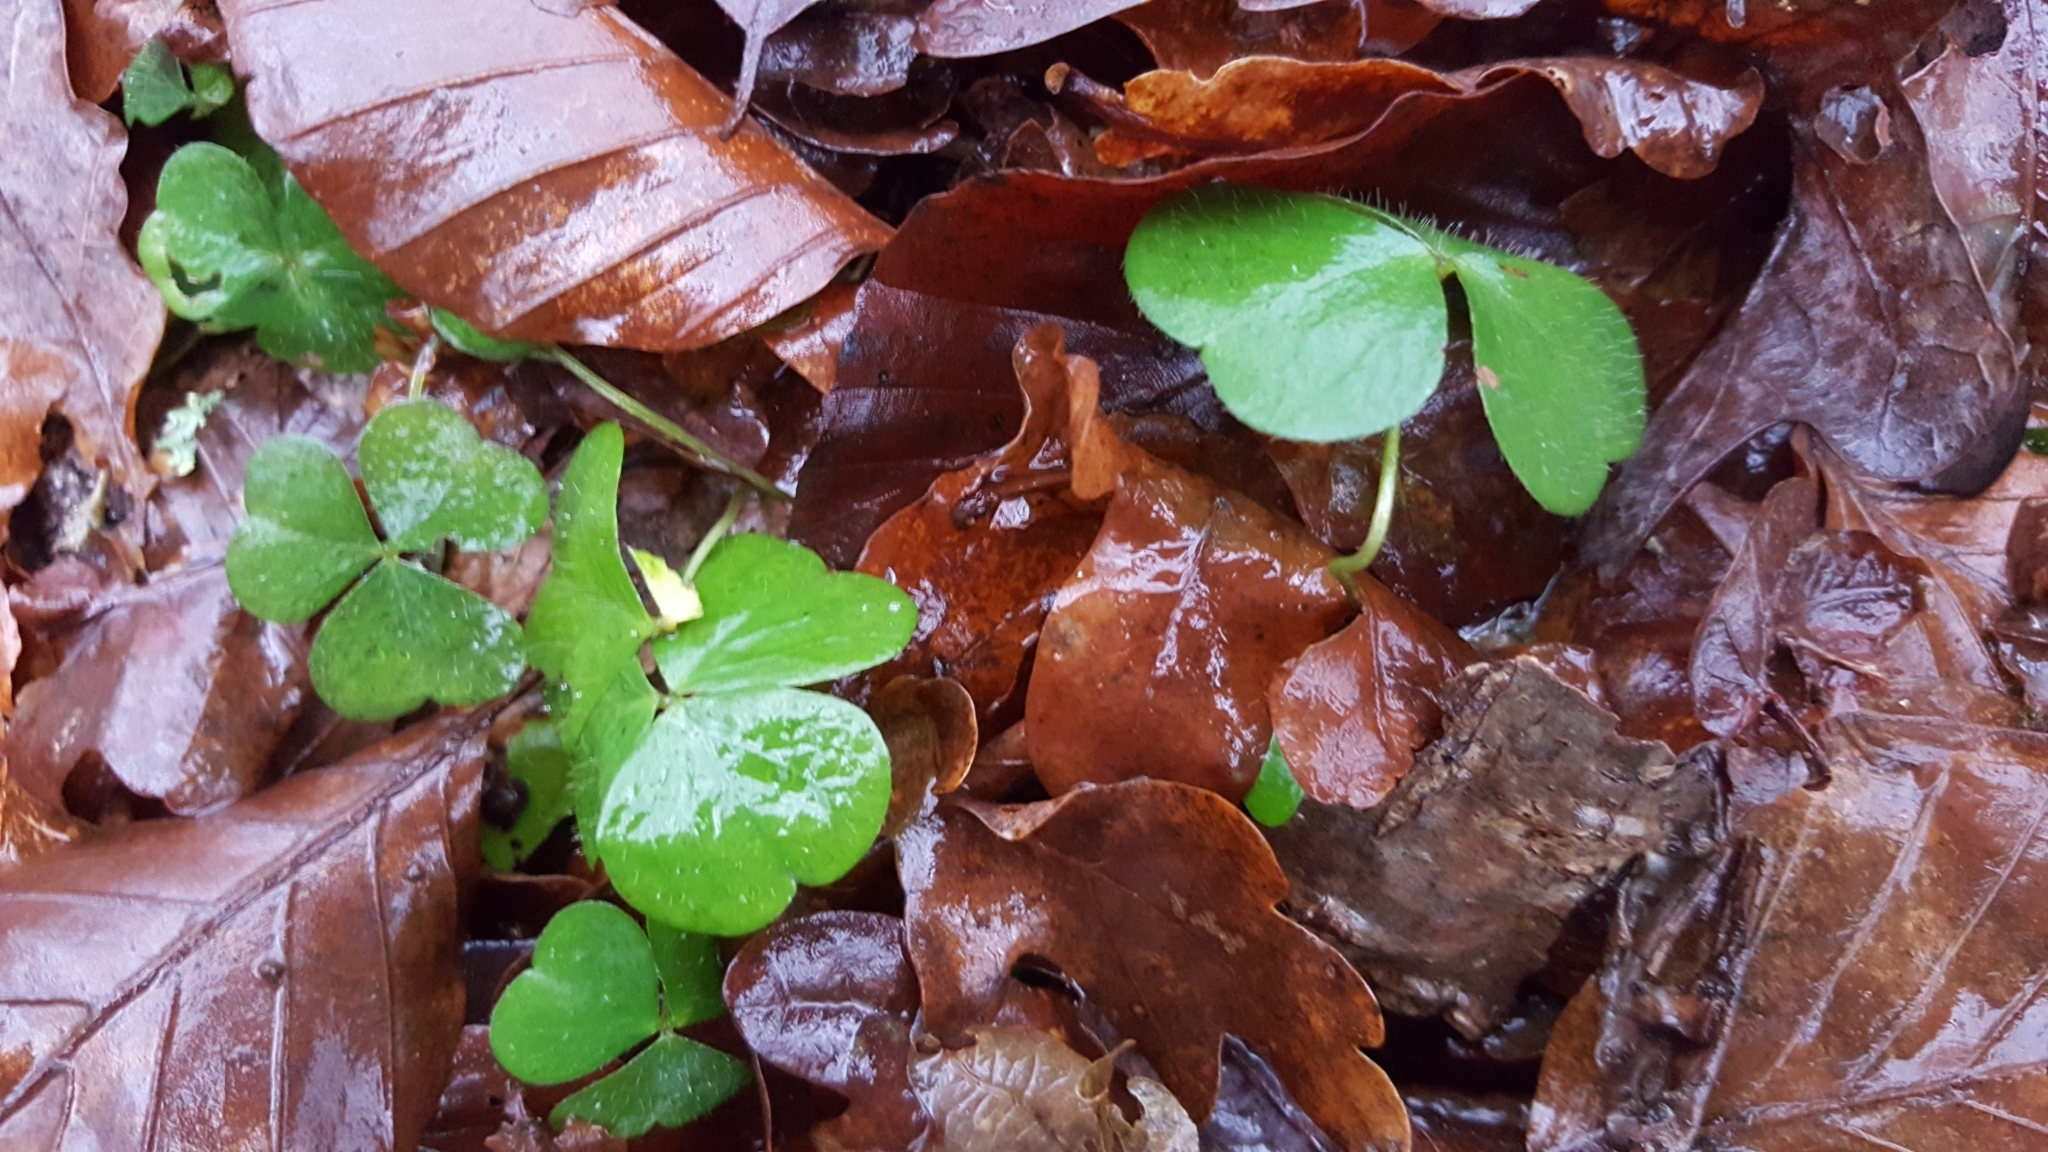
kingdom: Plantae
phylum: Tracheophyta
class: Magnoliopsida
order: Oxalidales
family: Oxalidaceae
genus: Oxalis
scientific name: Oxalis acetosella
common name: Wood-sorrel
